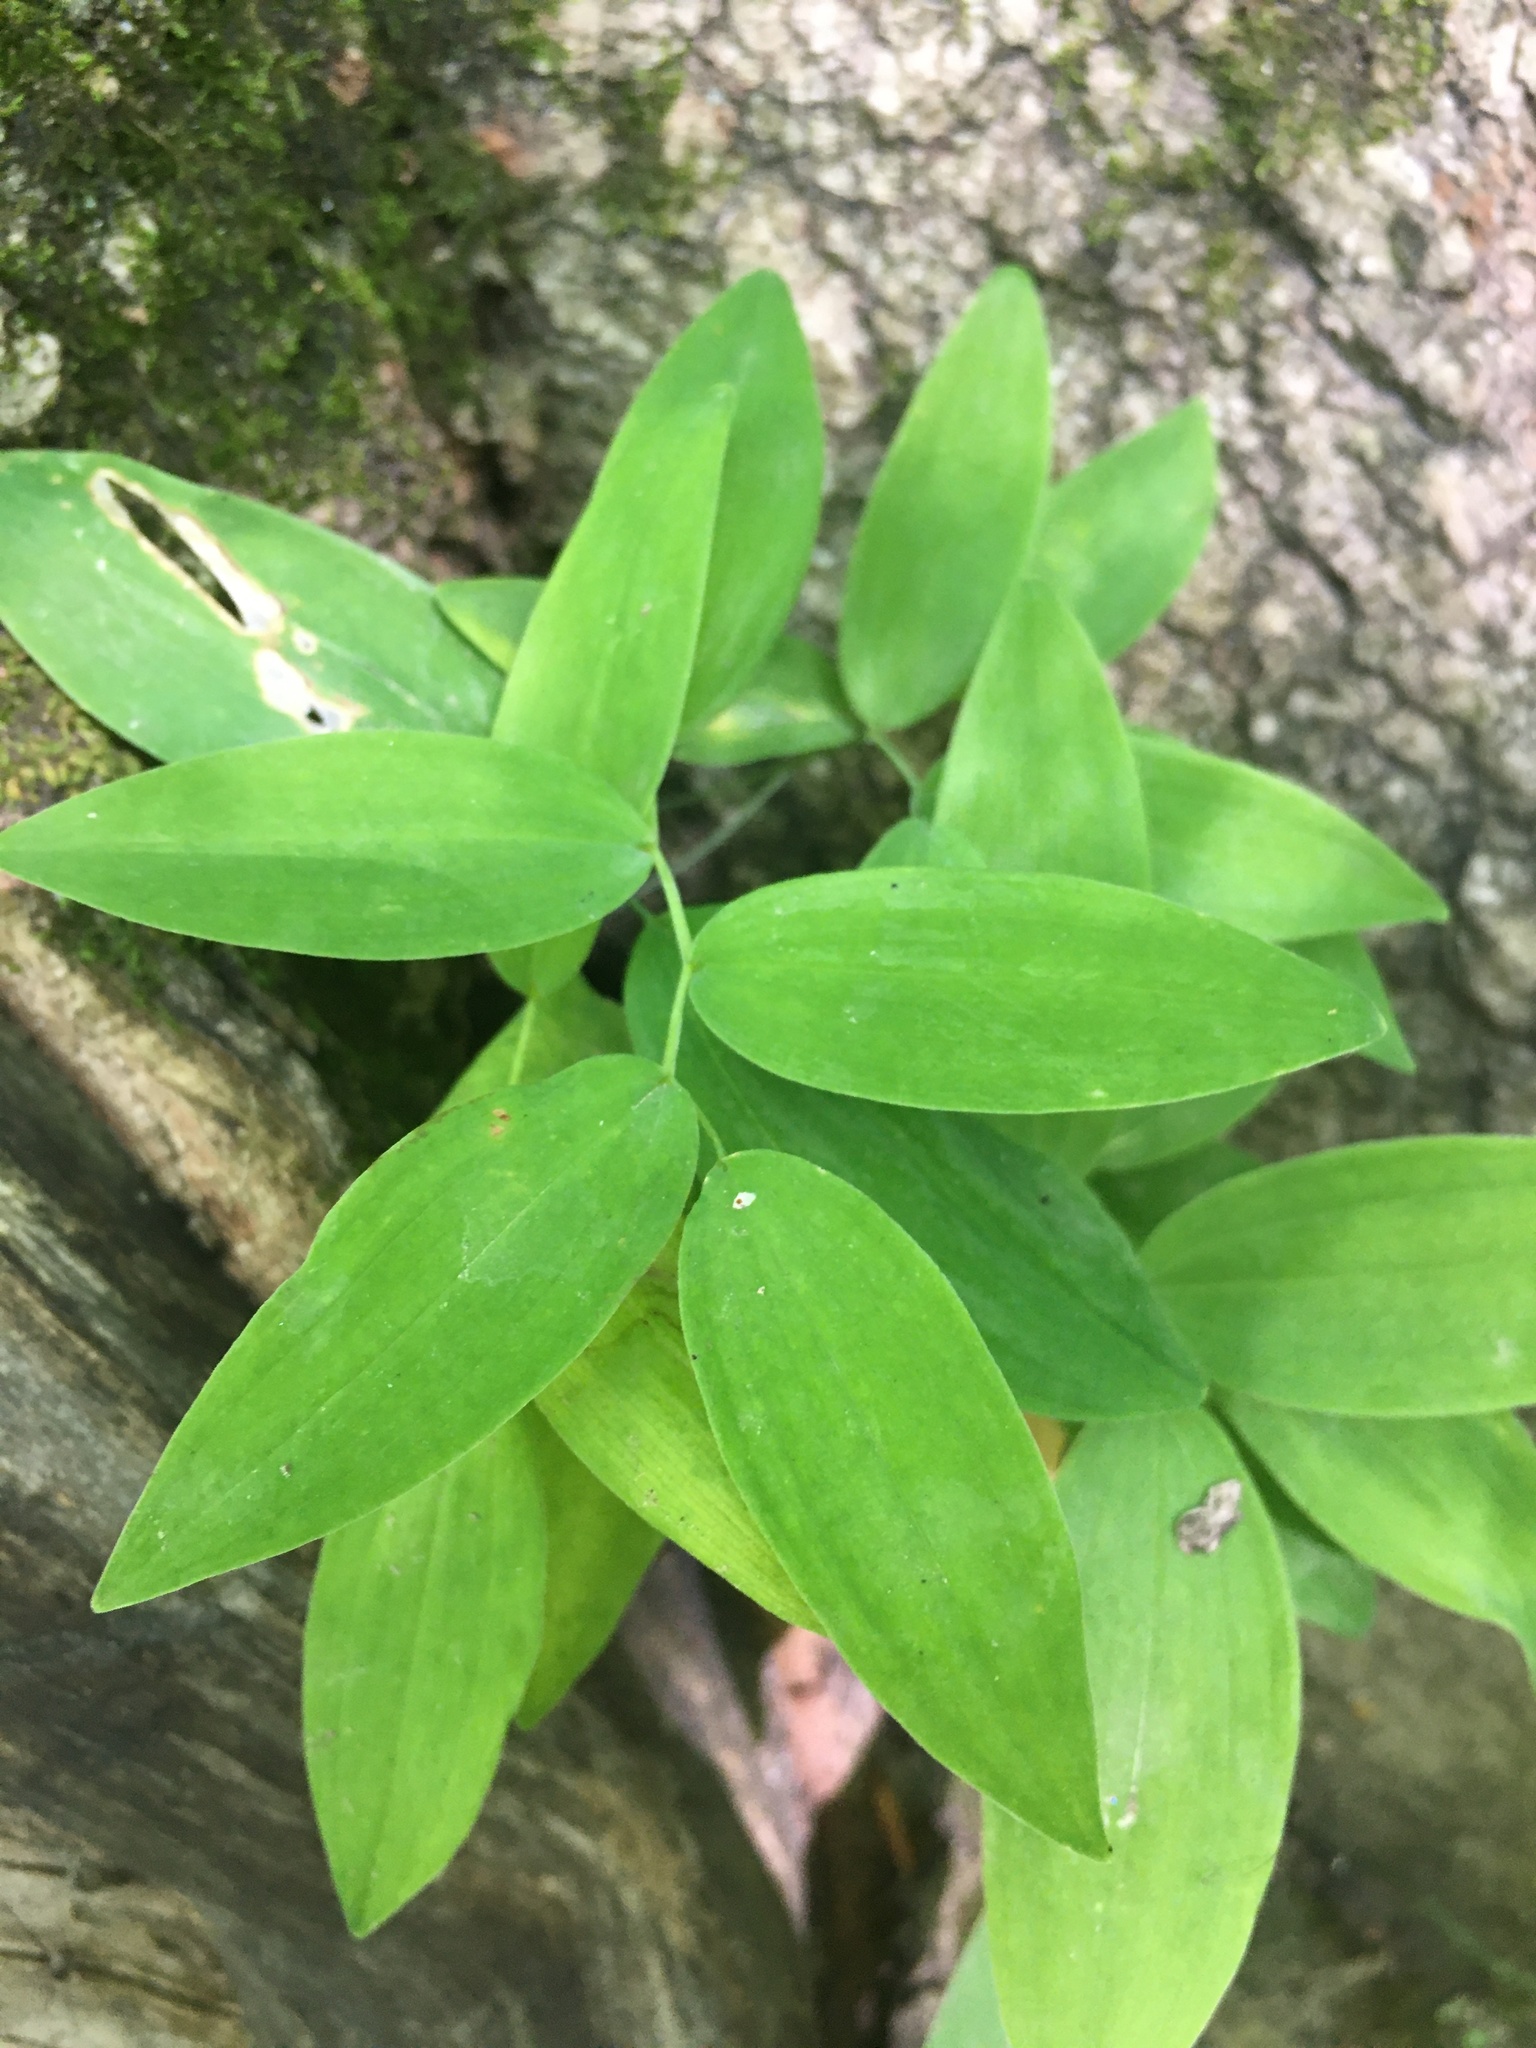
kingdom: Plantae
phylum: Tracheophyta
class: Liliopsida
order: Asparagales
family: Asparagaceae
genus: Polygonatum
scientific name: Polygonatum pubescens
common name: Downy solomon's seal
